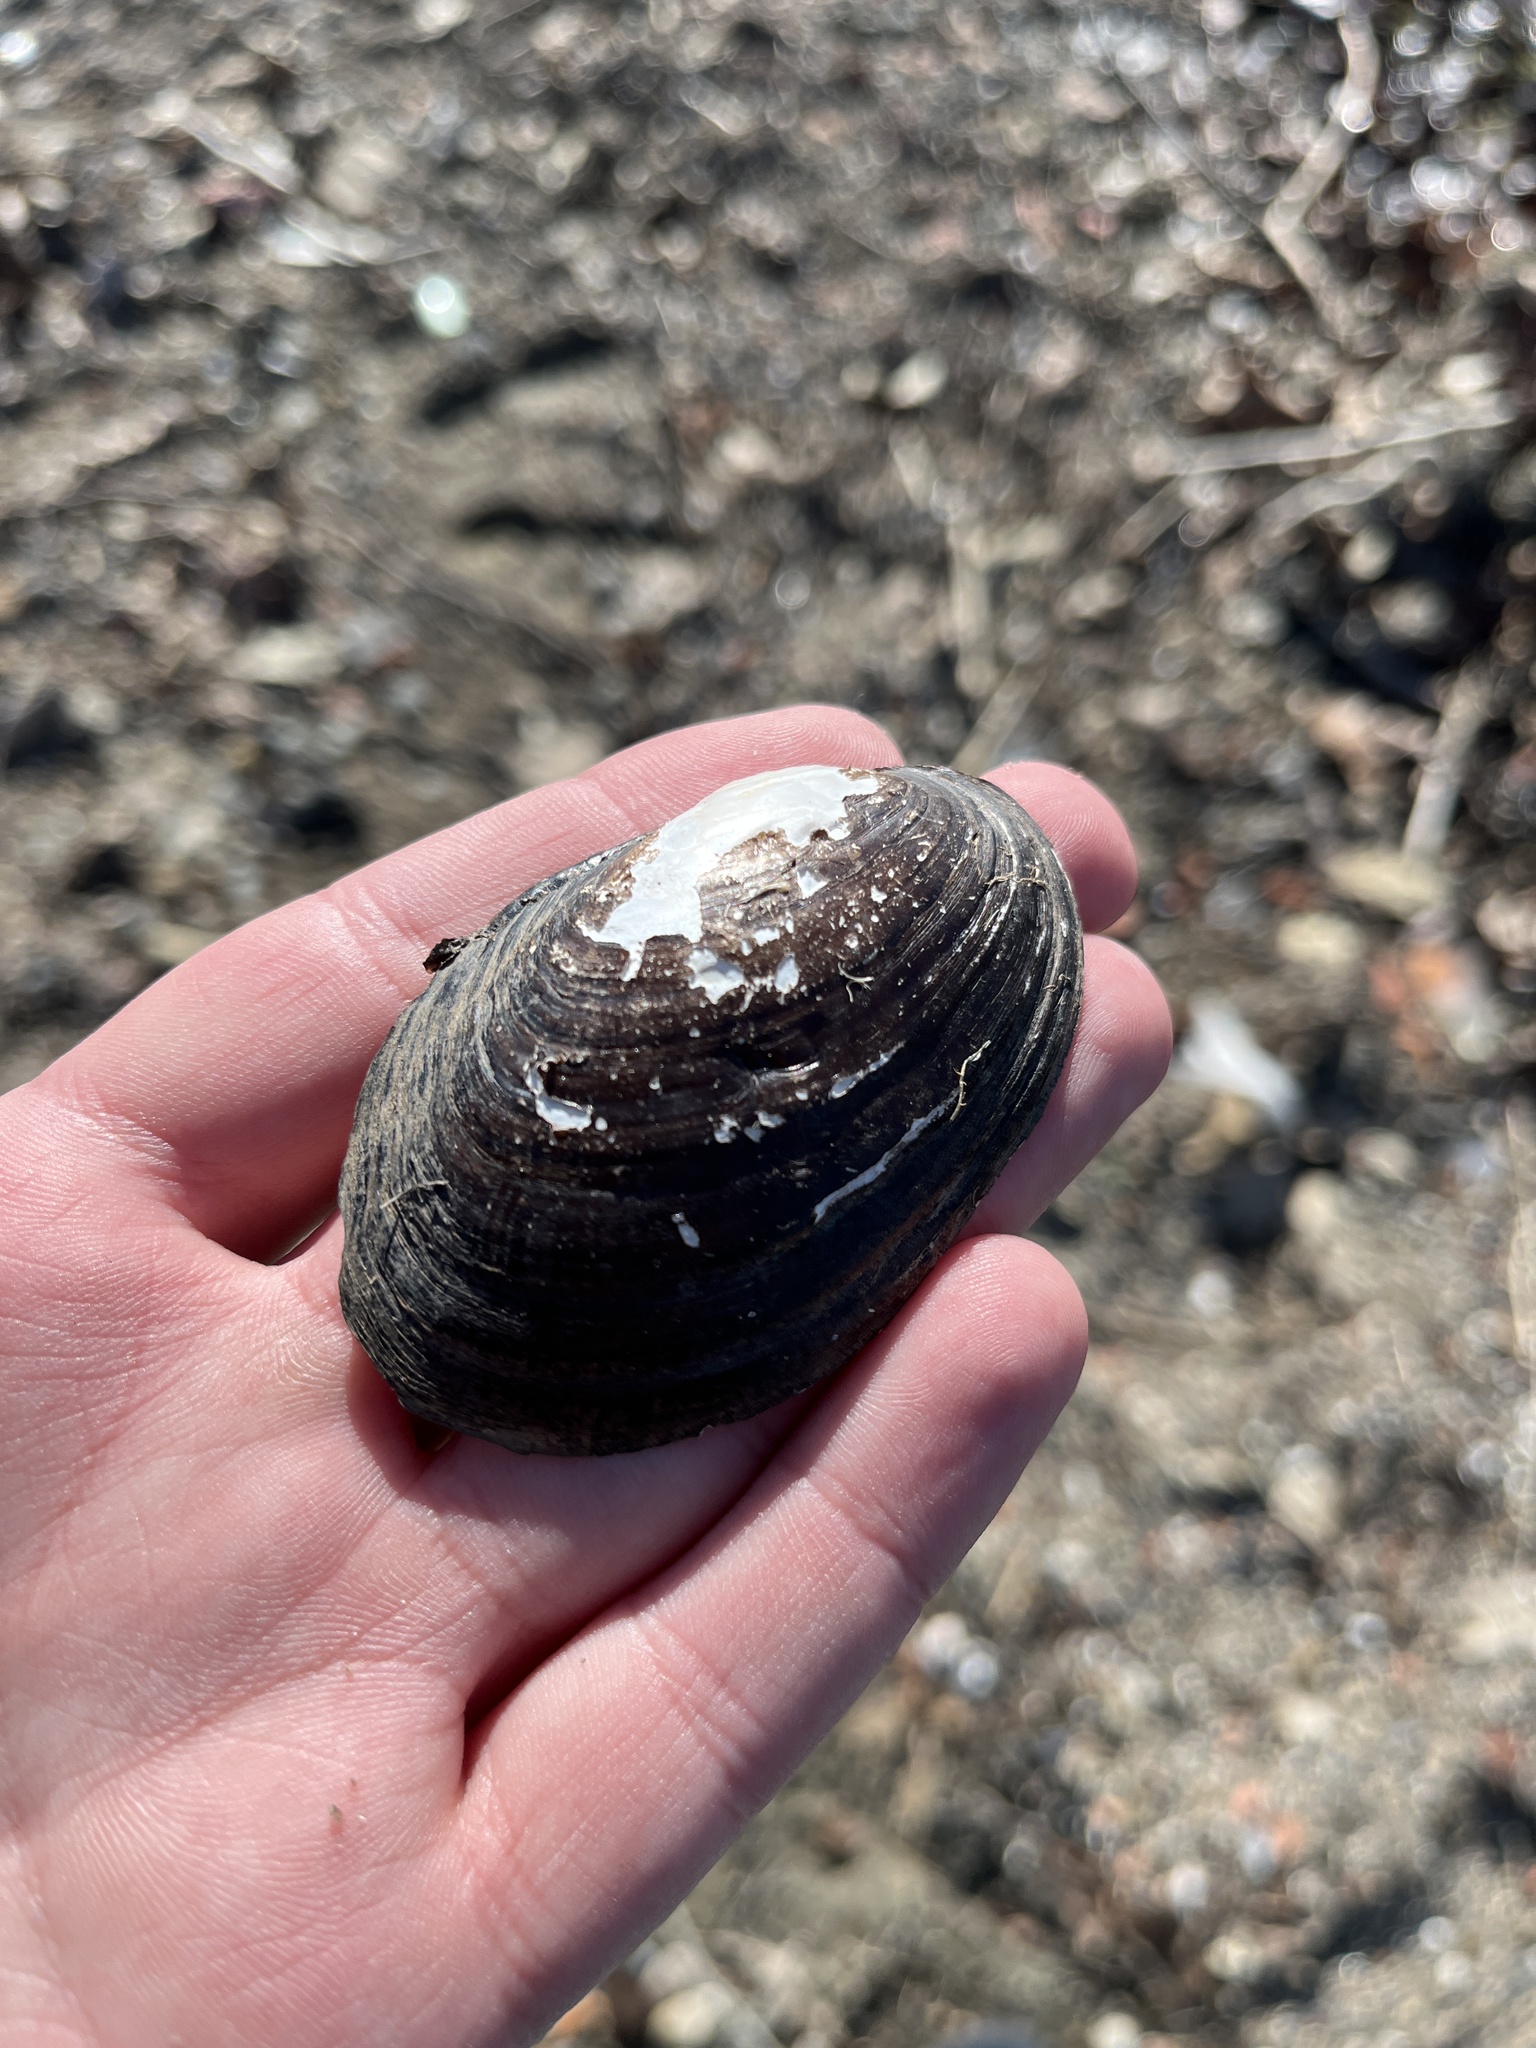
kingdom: Animalia
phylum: Mollusca
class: Bivalvia
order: Unionida
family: Unionidae
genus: Lampsilis
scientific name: Lampsilis siliquoidea
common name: Fatmucket
